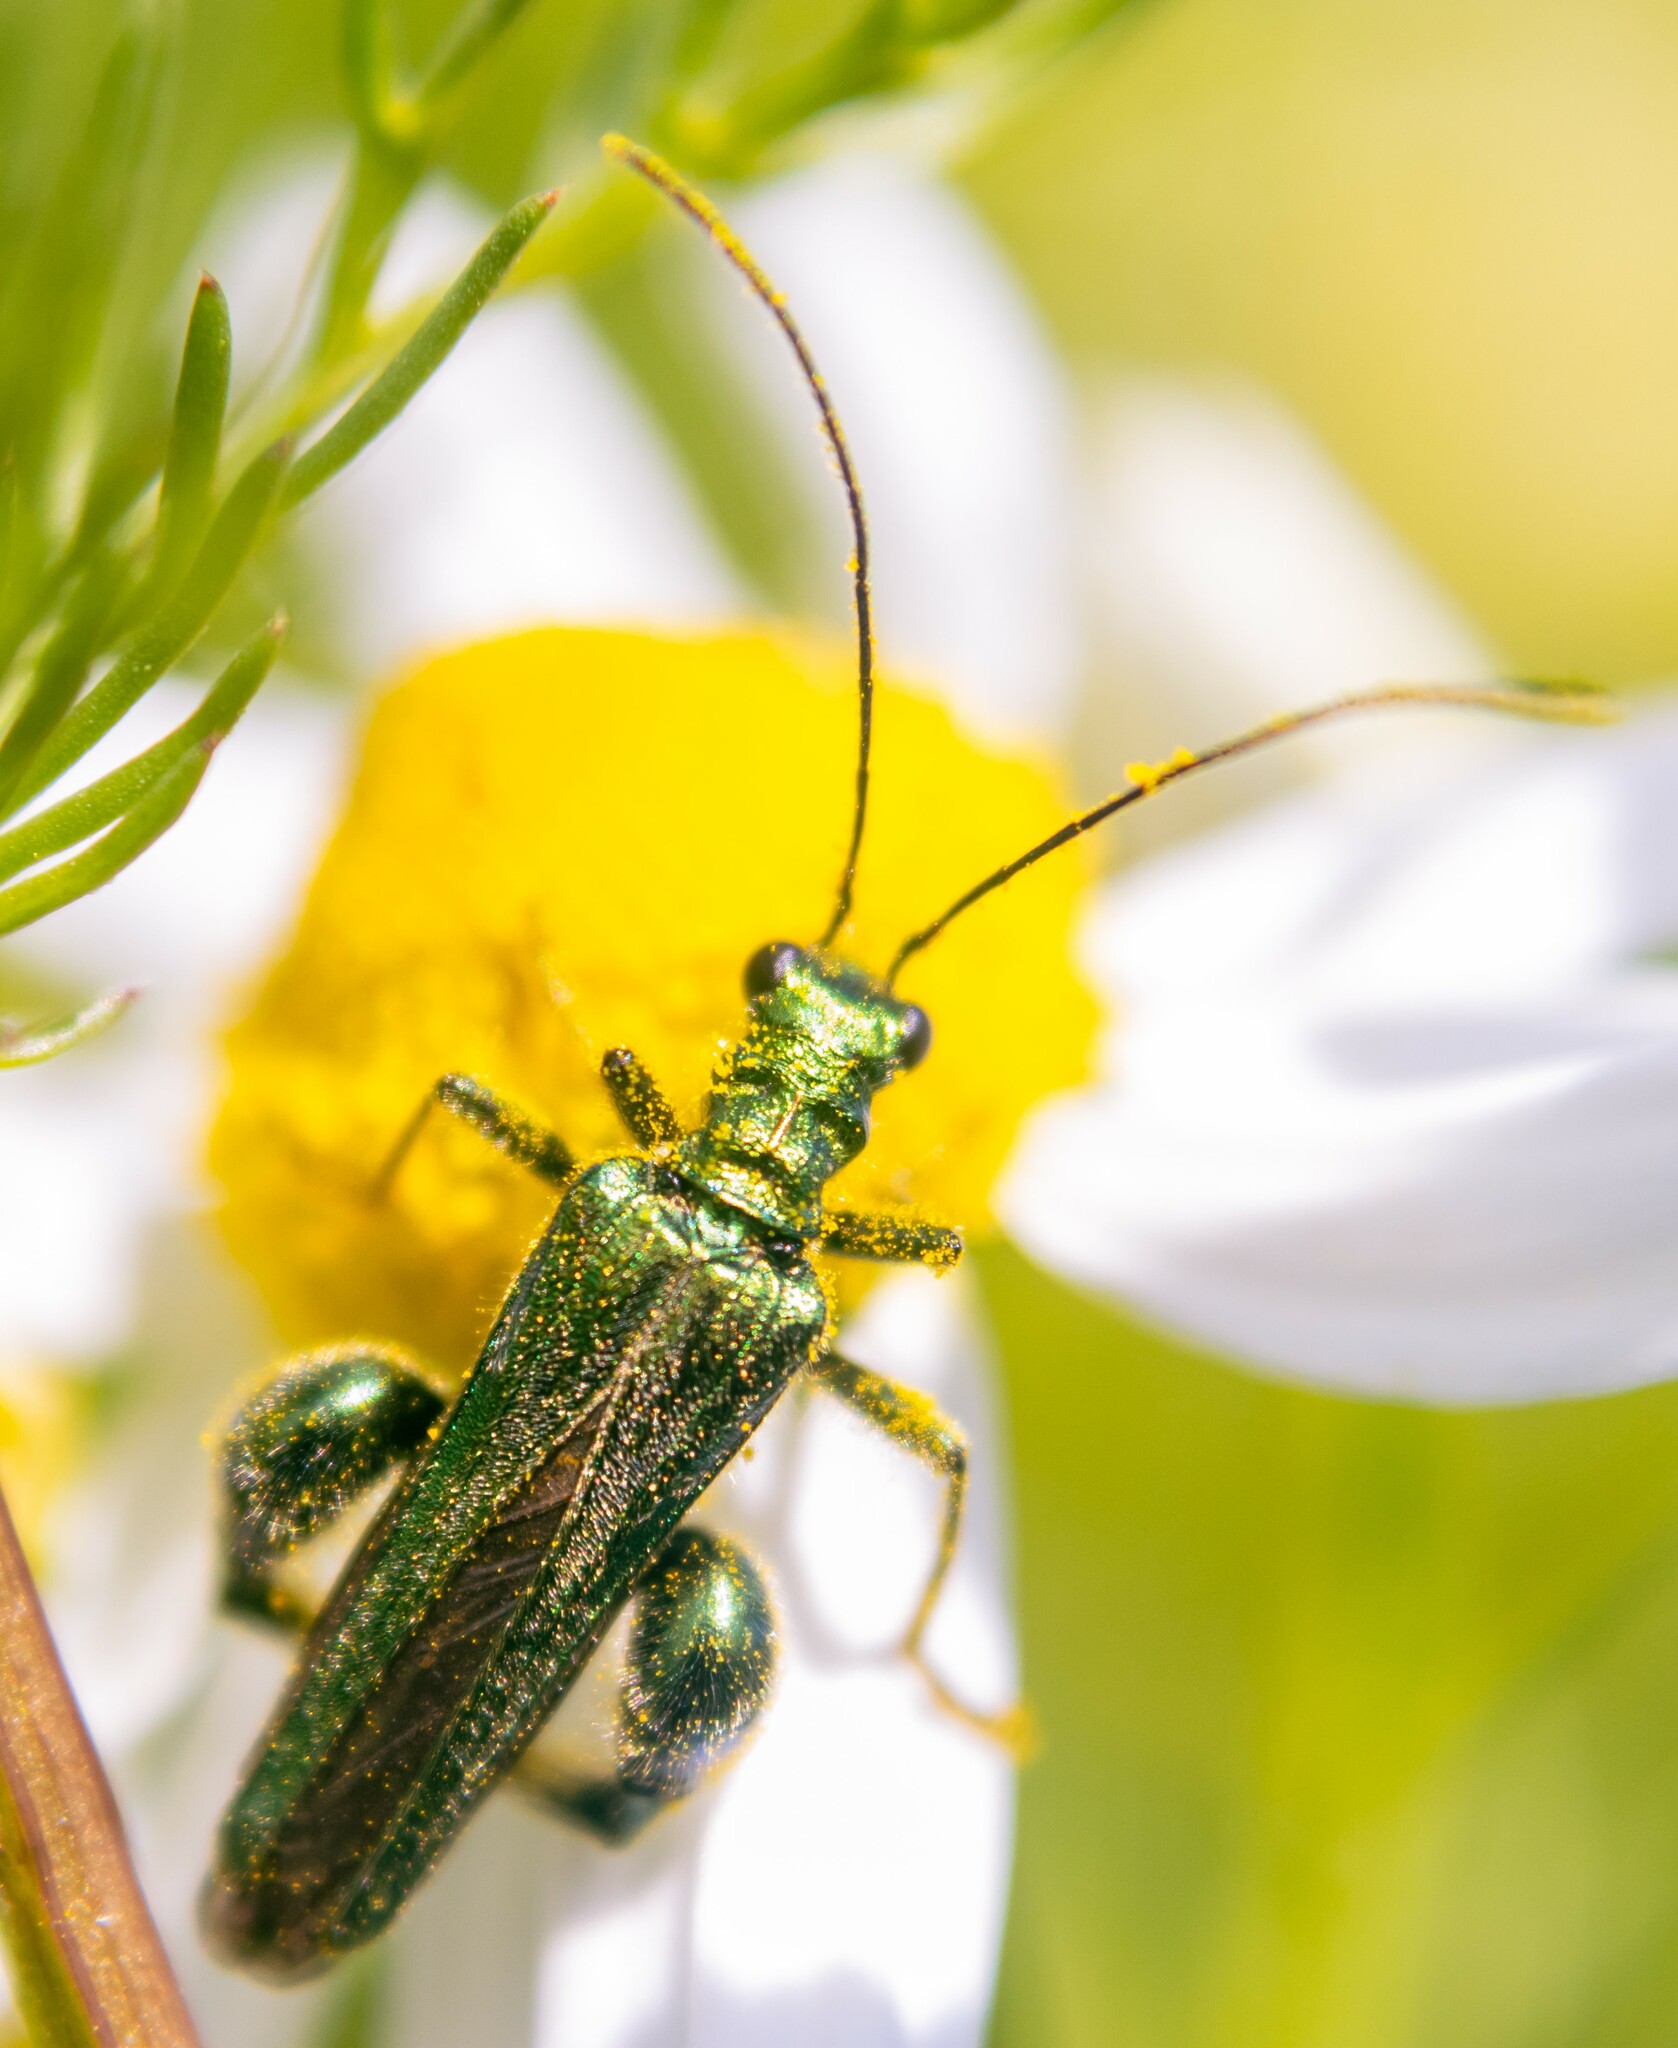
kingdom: Animalia
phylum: Arthropoda
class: Insecta
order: Coleoptera
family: Oedemeridae
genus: Oedemera
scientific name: Oedemera nobilis
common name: Swollen-thighed beetle
